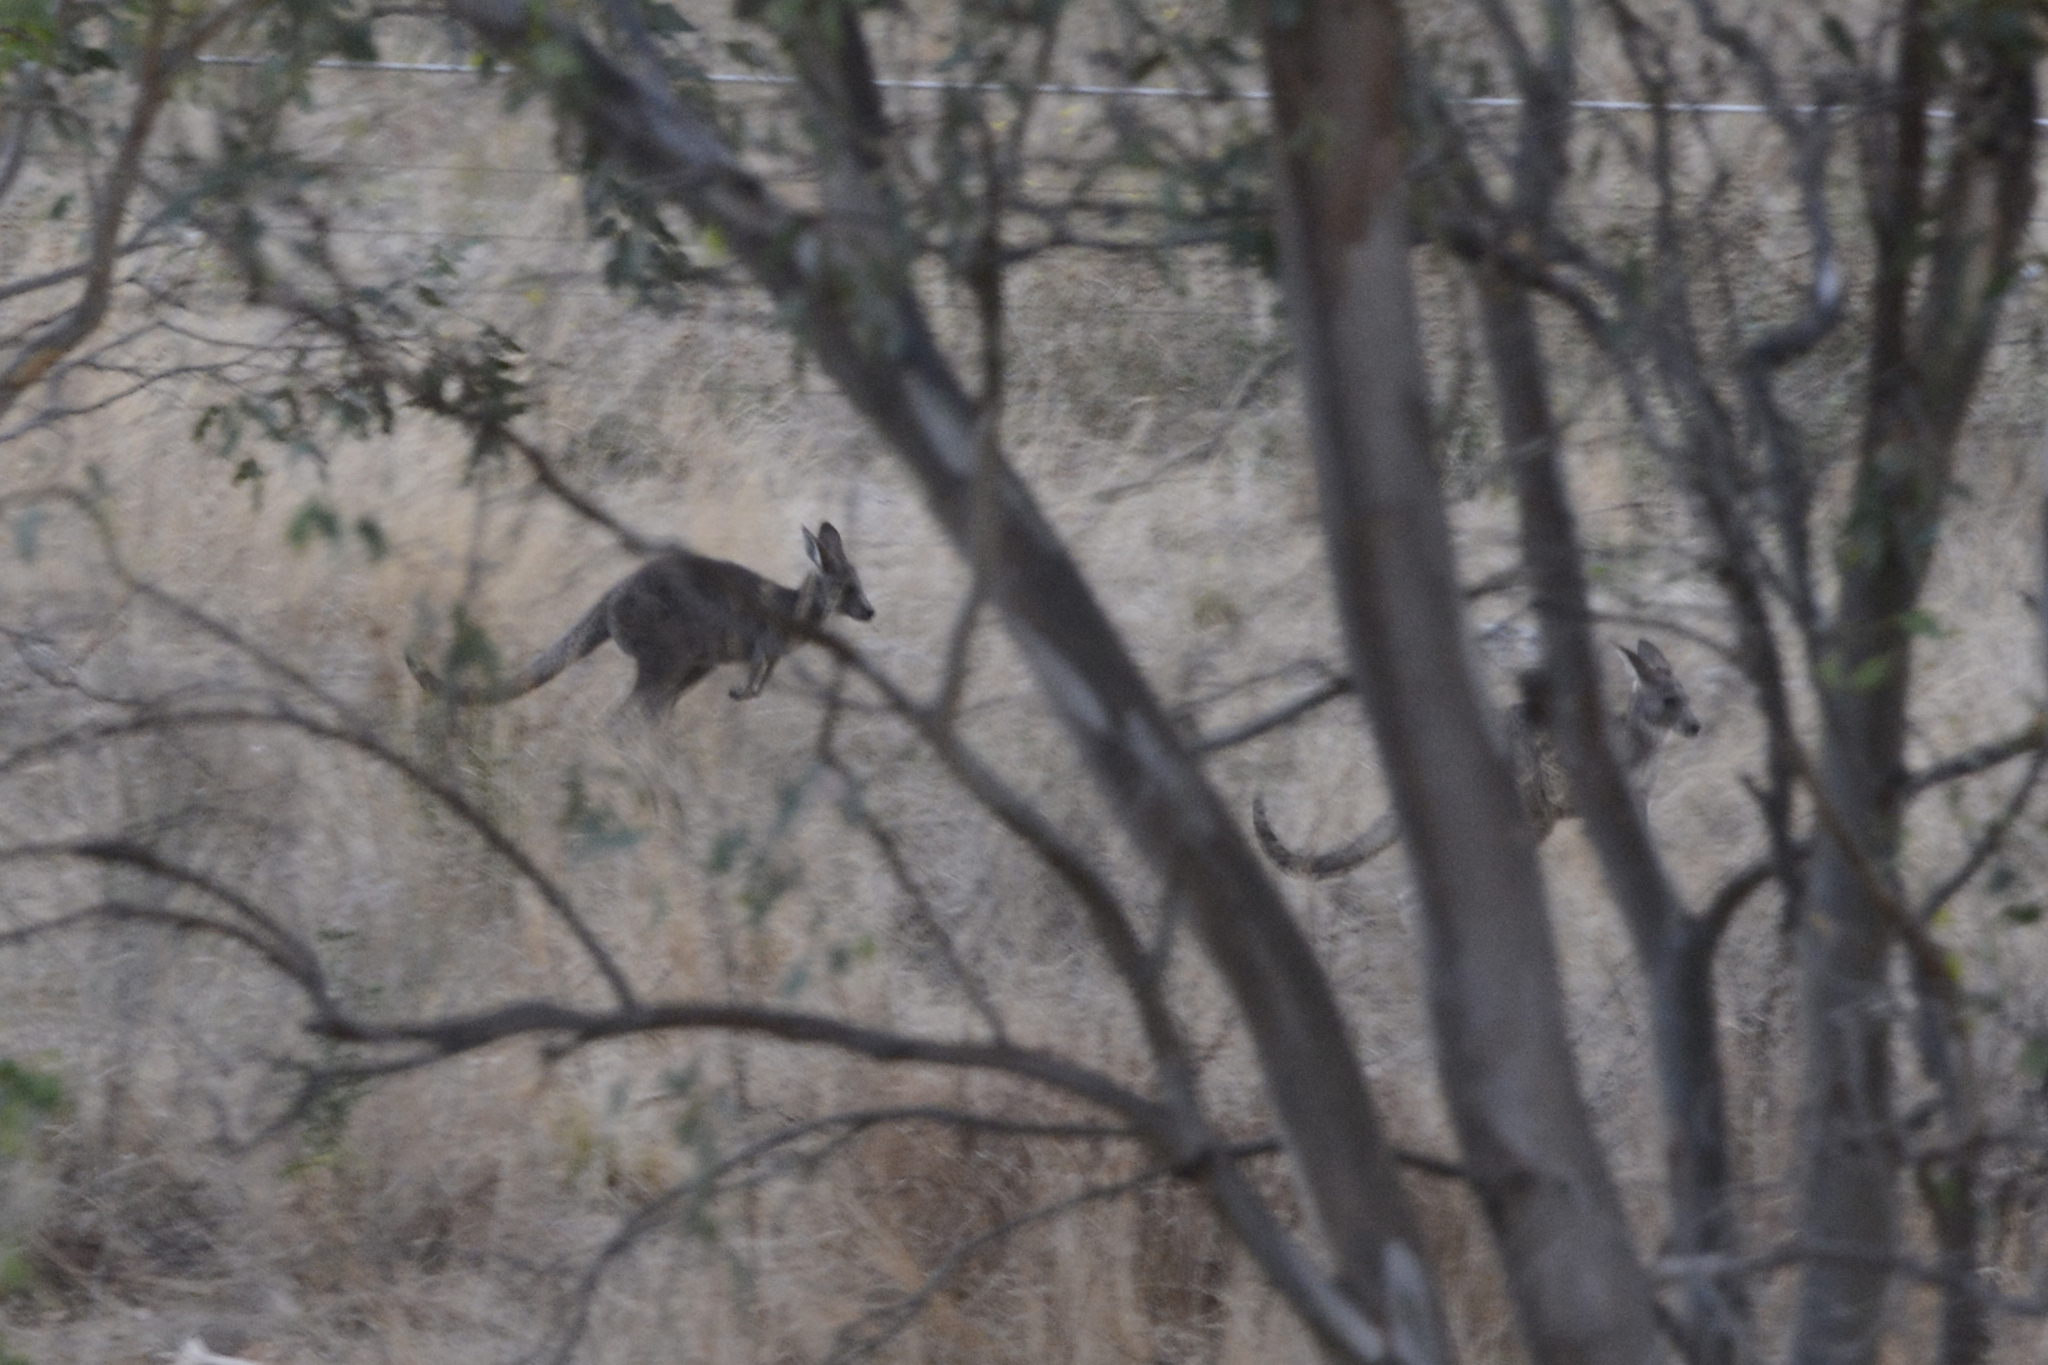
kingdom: Animalia
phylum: Chordata
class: Mammalia
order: Diprotodontia
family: Macropodidae
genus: Macropus
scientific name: Macropus giganteus
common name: Eastern grey kangaroo
